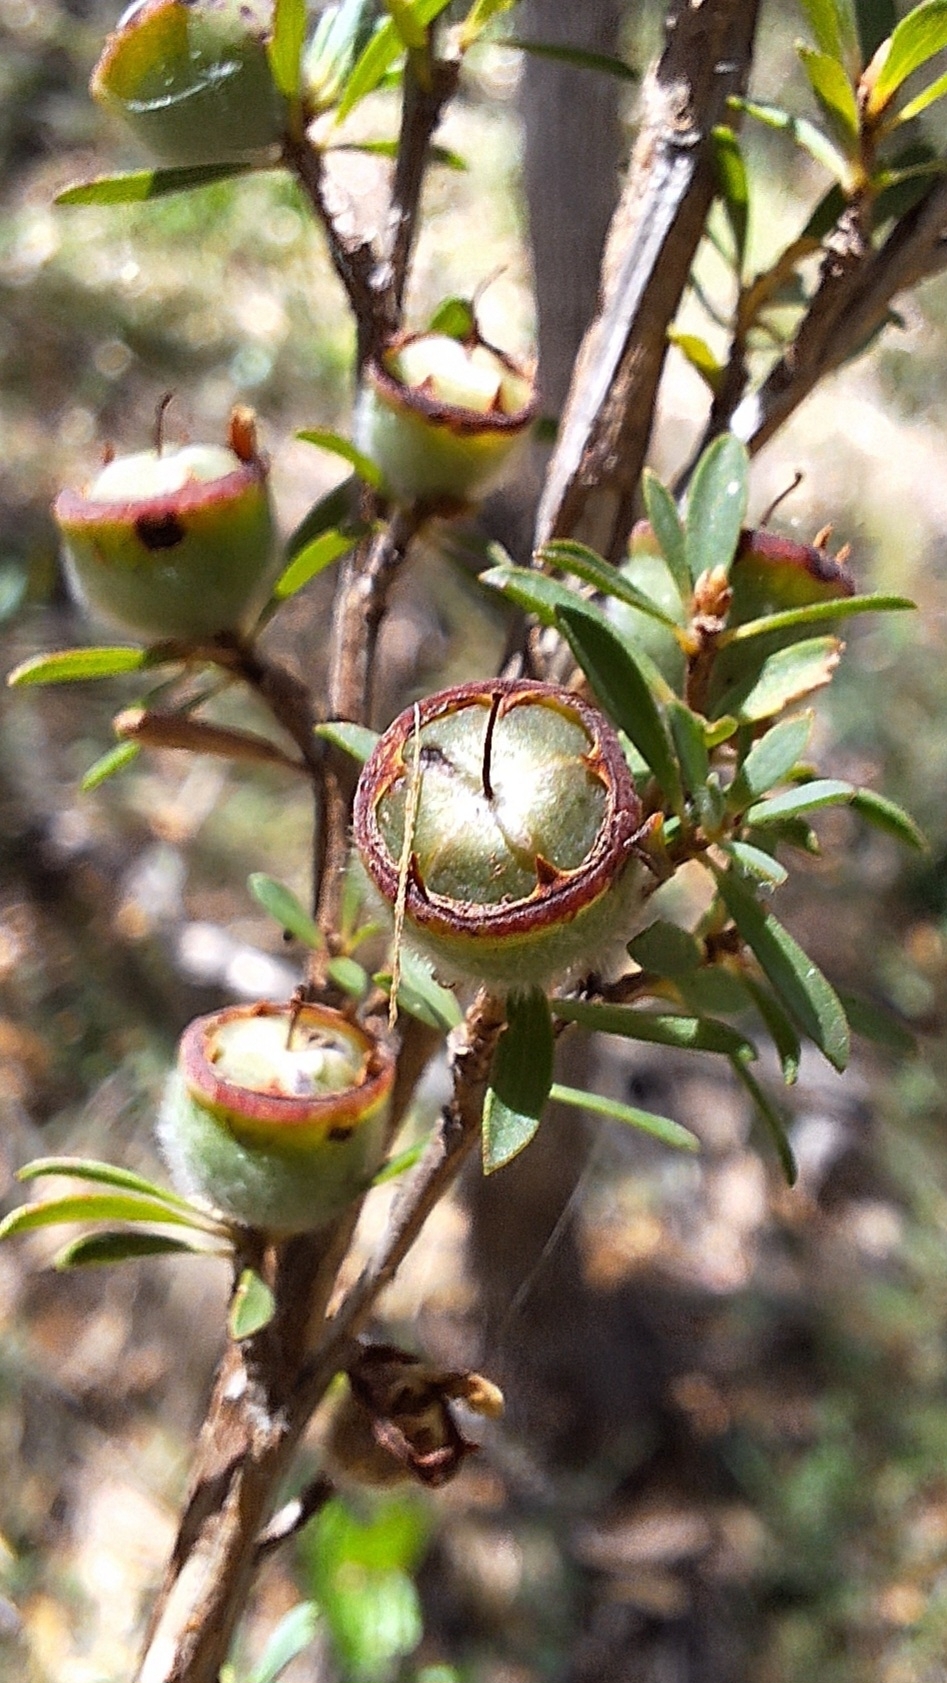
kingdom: Plantae
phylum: Tracheophyta
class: Magnoliopsida
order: Myrtales
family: Myrtaceae
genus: Leptospermum
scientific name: Leptospermum myrsinoides
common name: Heath teatree
